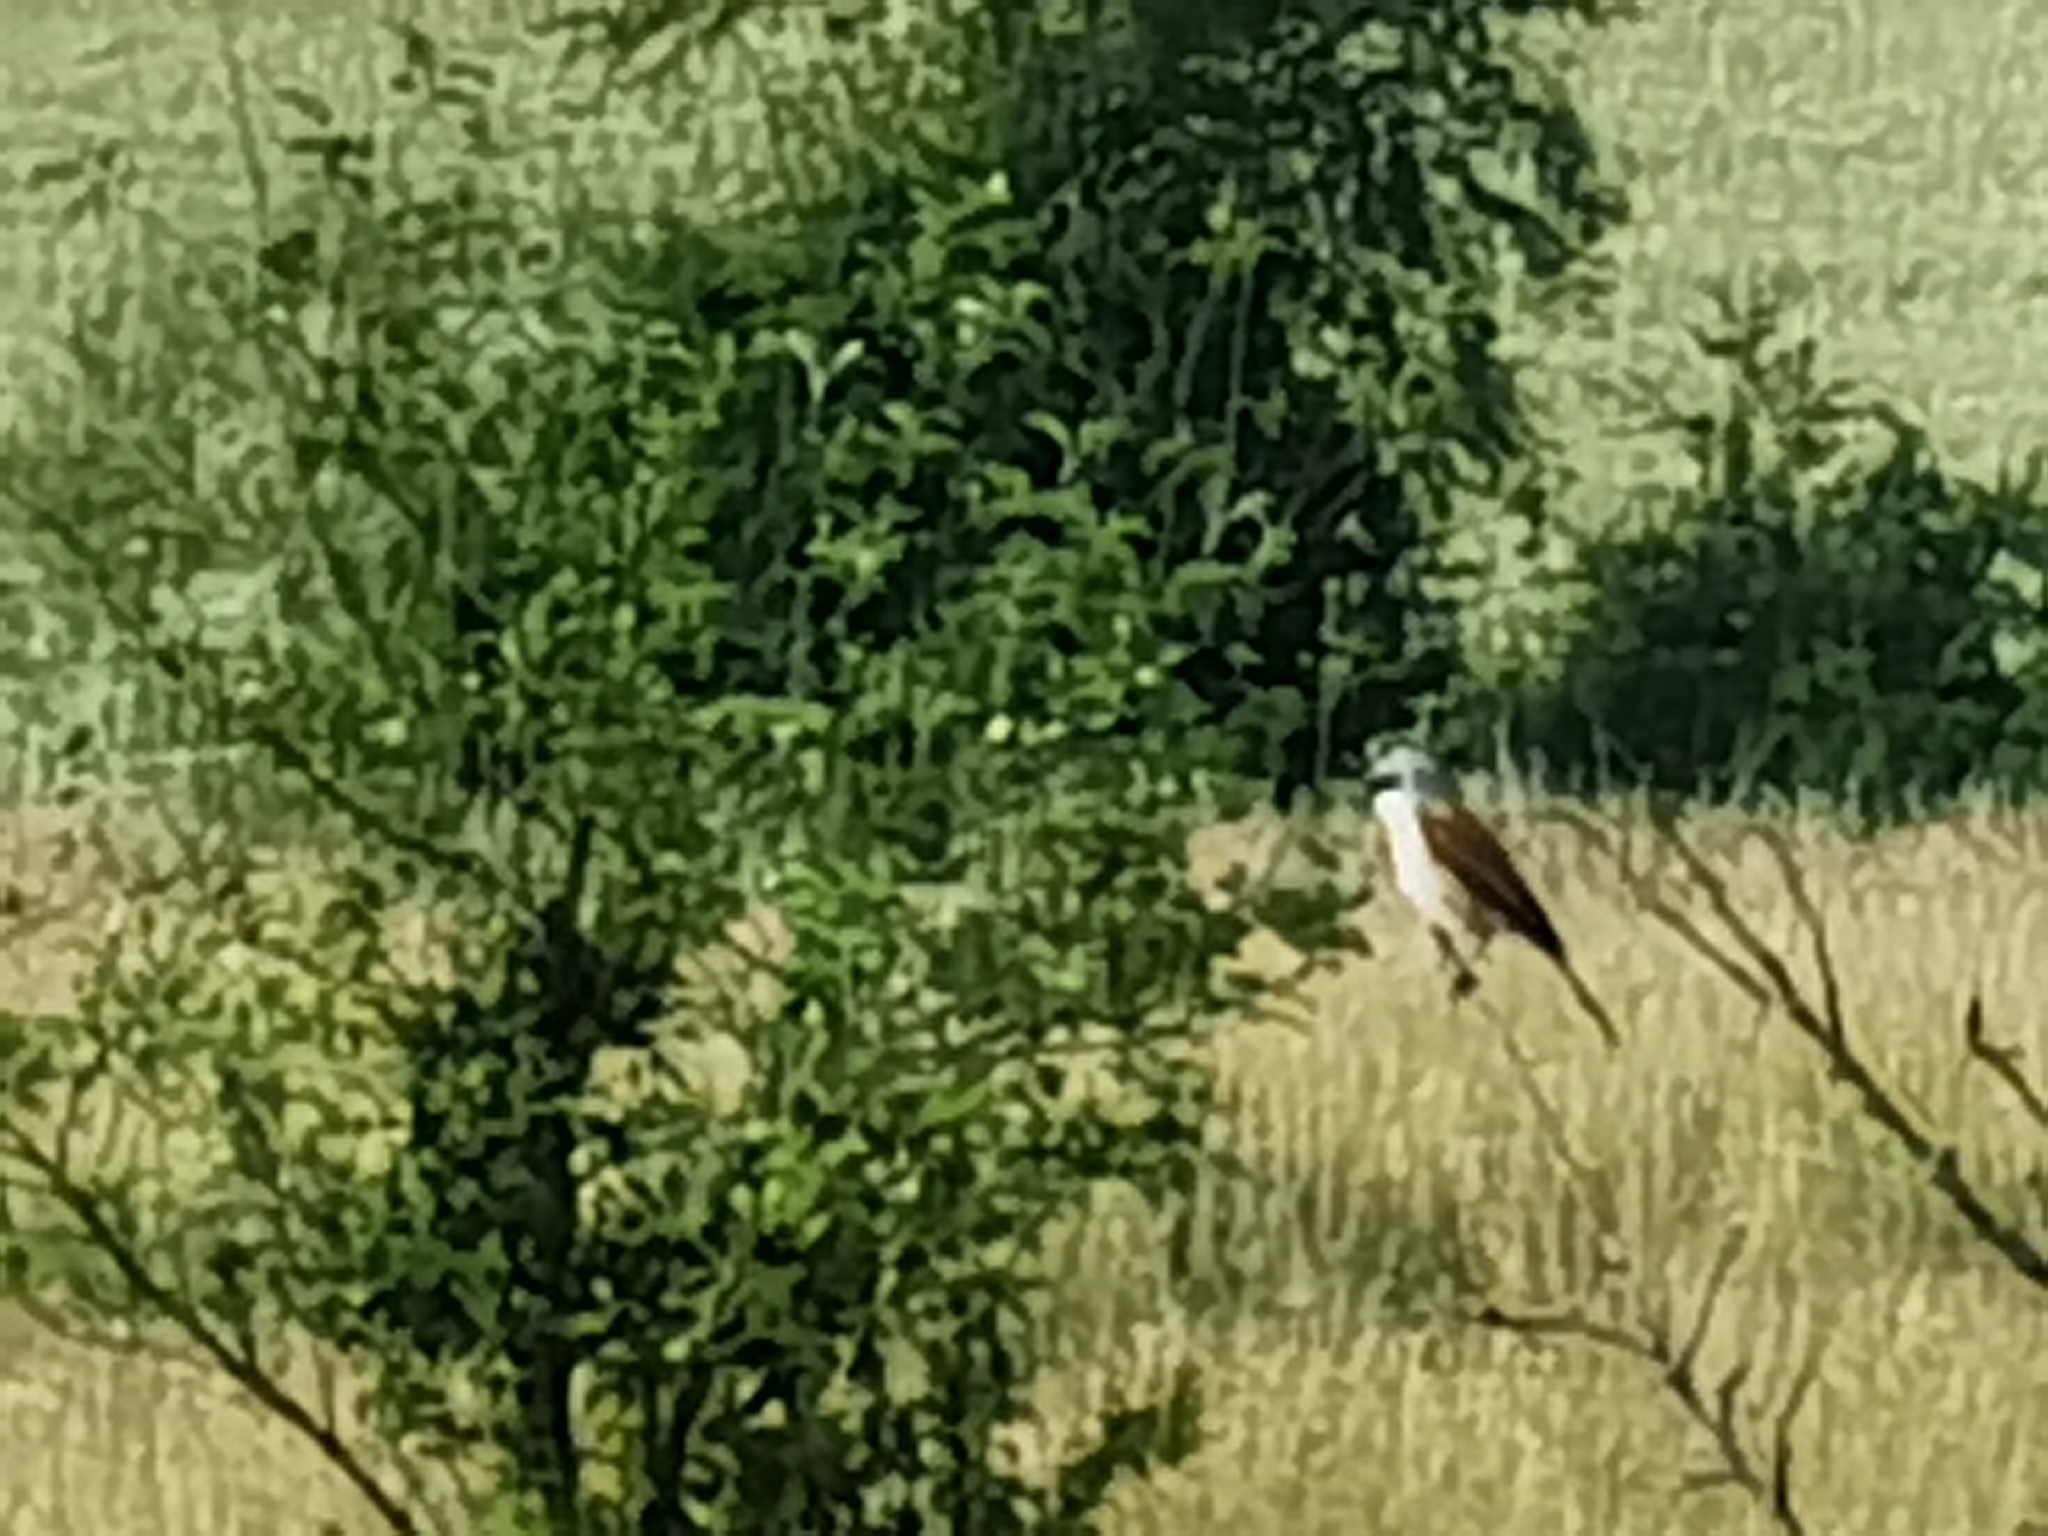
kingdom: Animalia
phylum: Chordata
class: Aves
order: Passeriformes
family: Laniidae
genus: Lanius
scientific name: Lanius collurio
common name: Red-backed shrike
